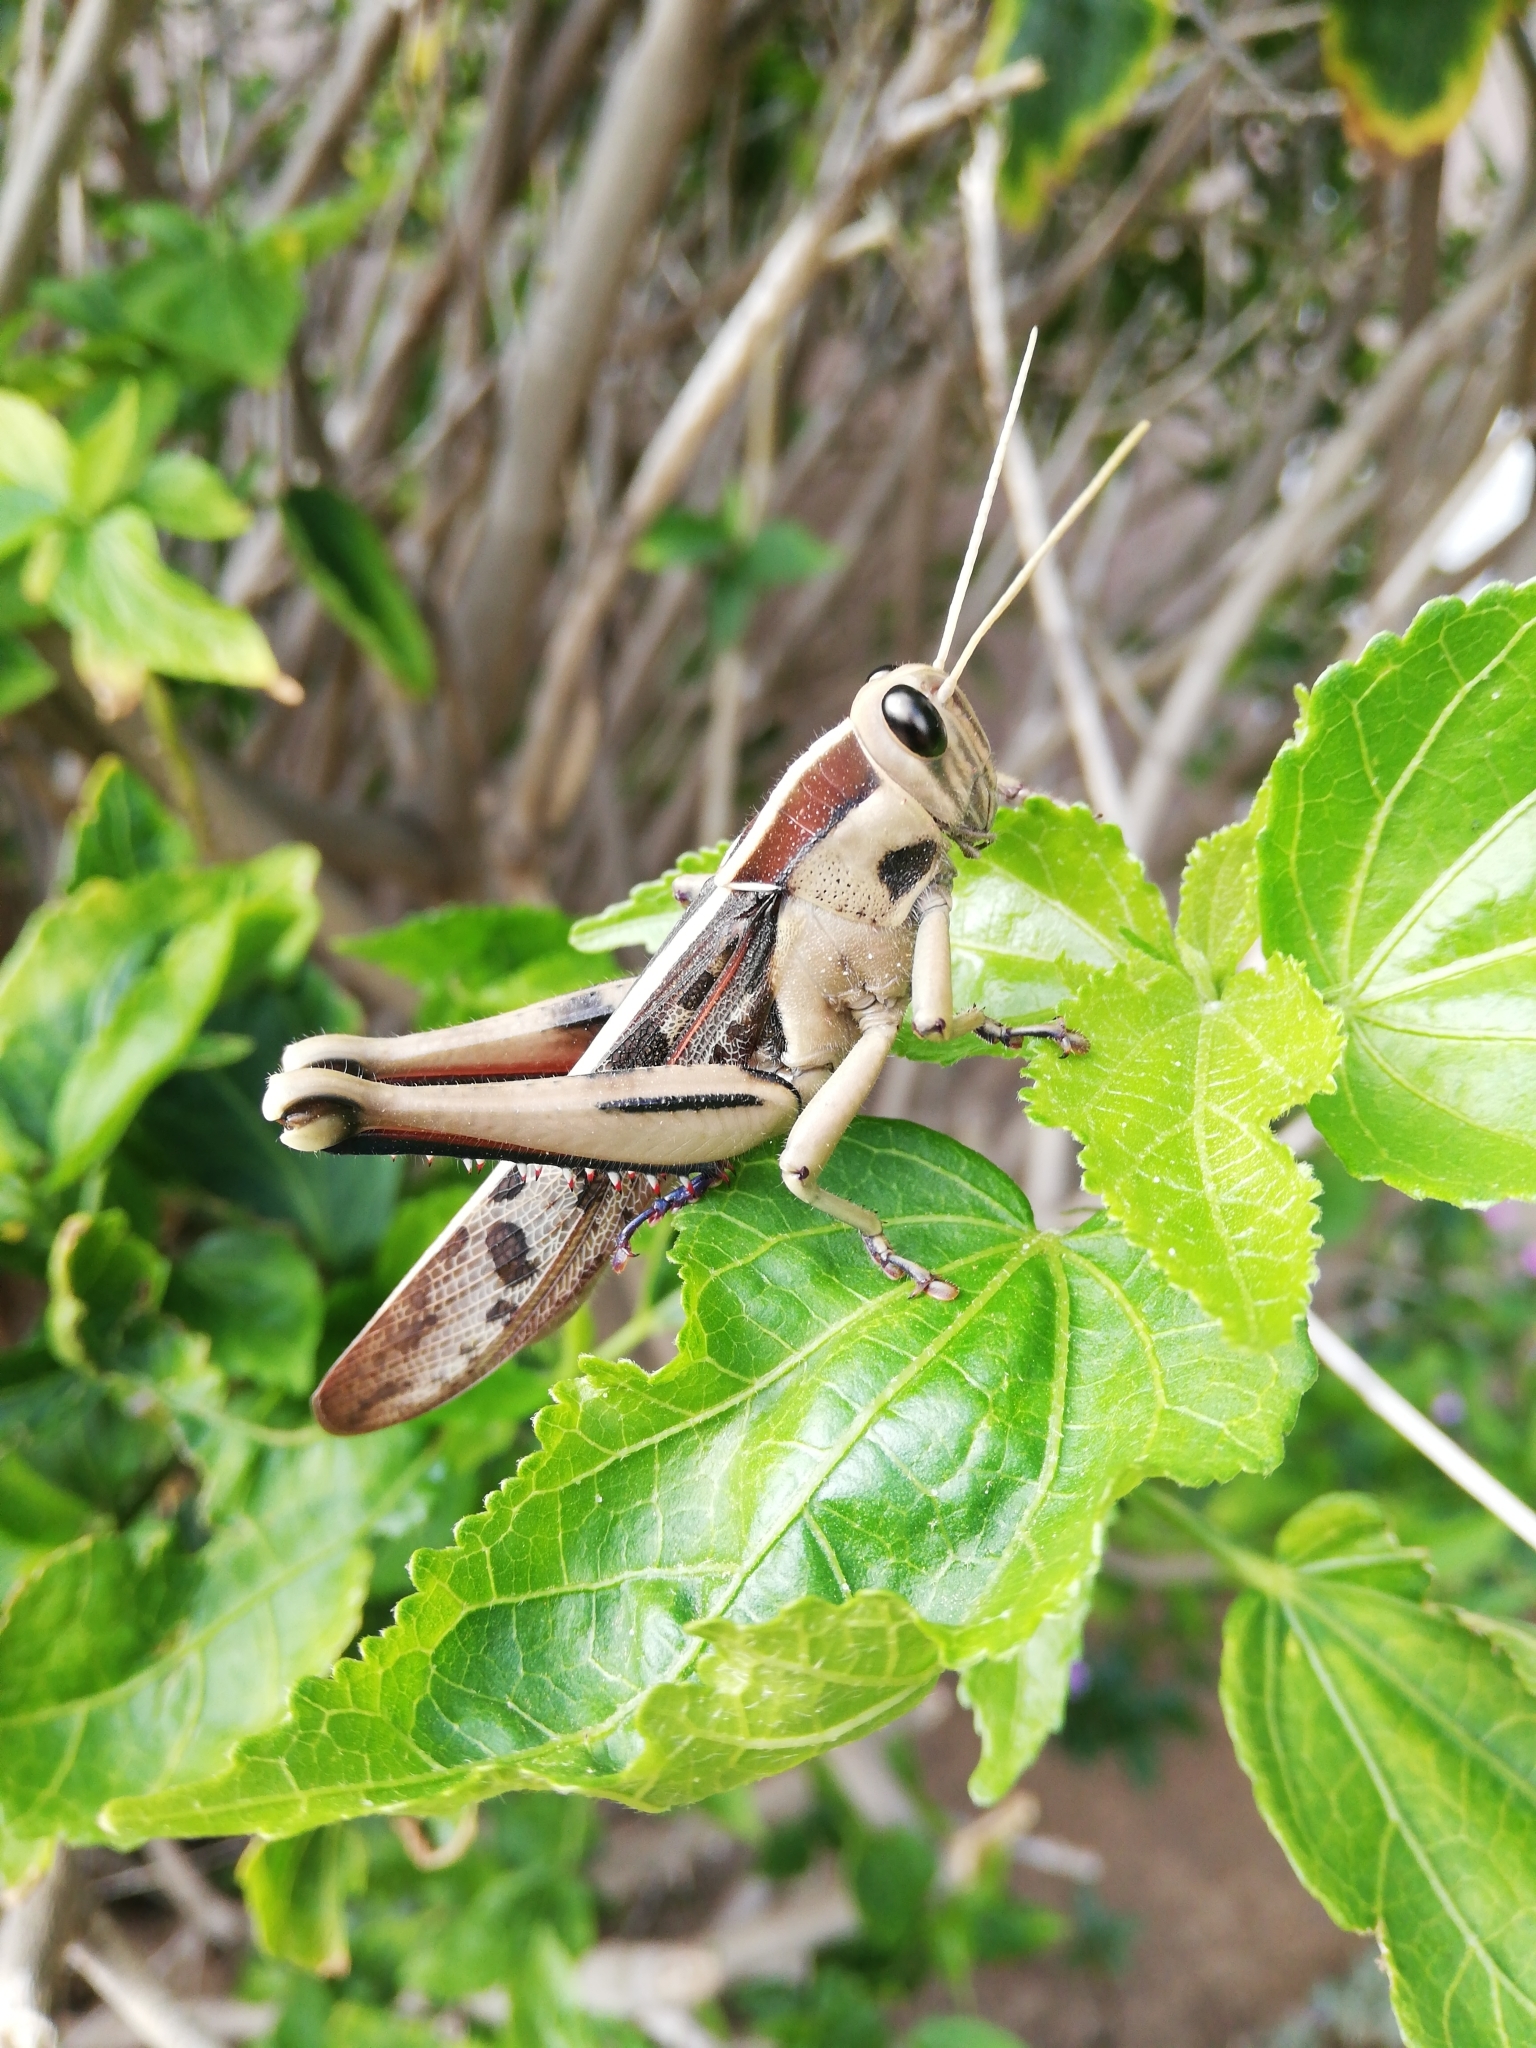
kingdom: Animalia
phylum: Arthropoda
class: Insecta
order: Orthoptera
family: Acrididae
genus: Acanthacris
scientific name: Acanthacris ruficornis
